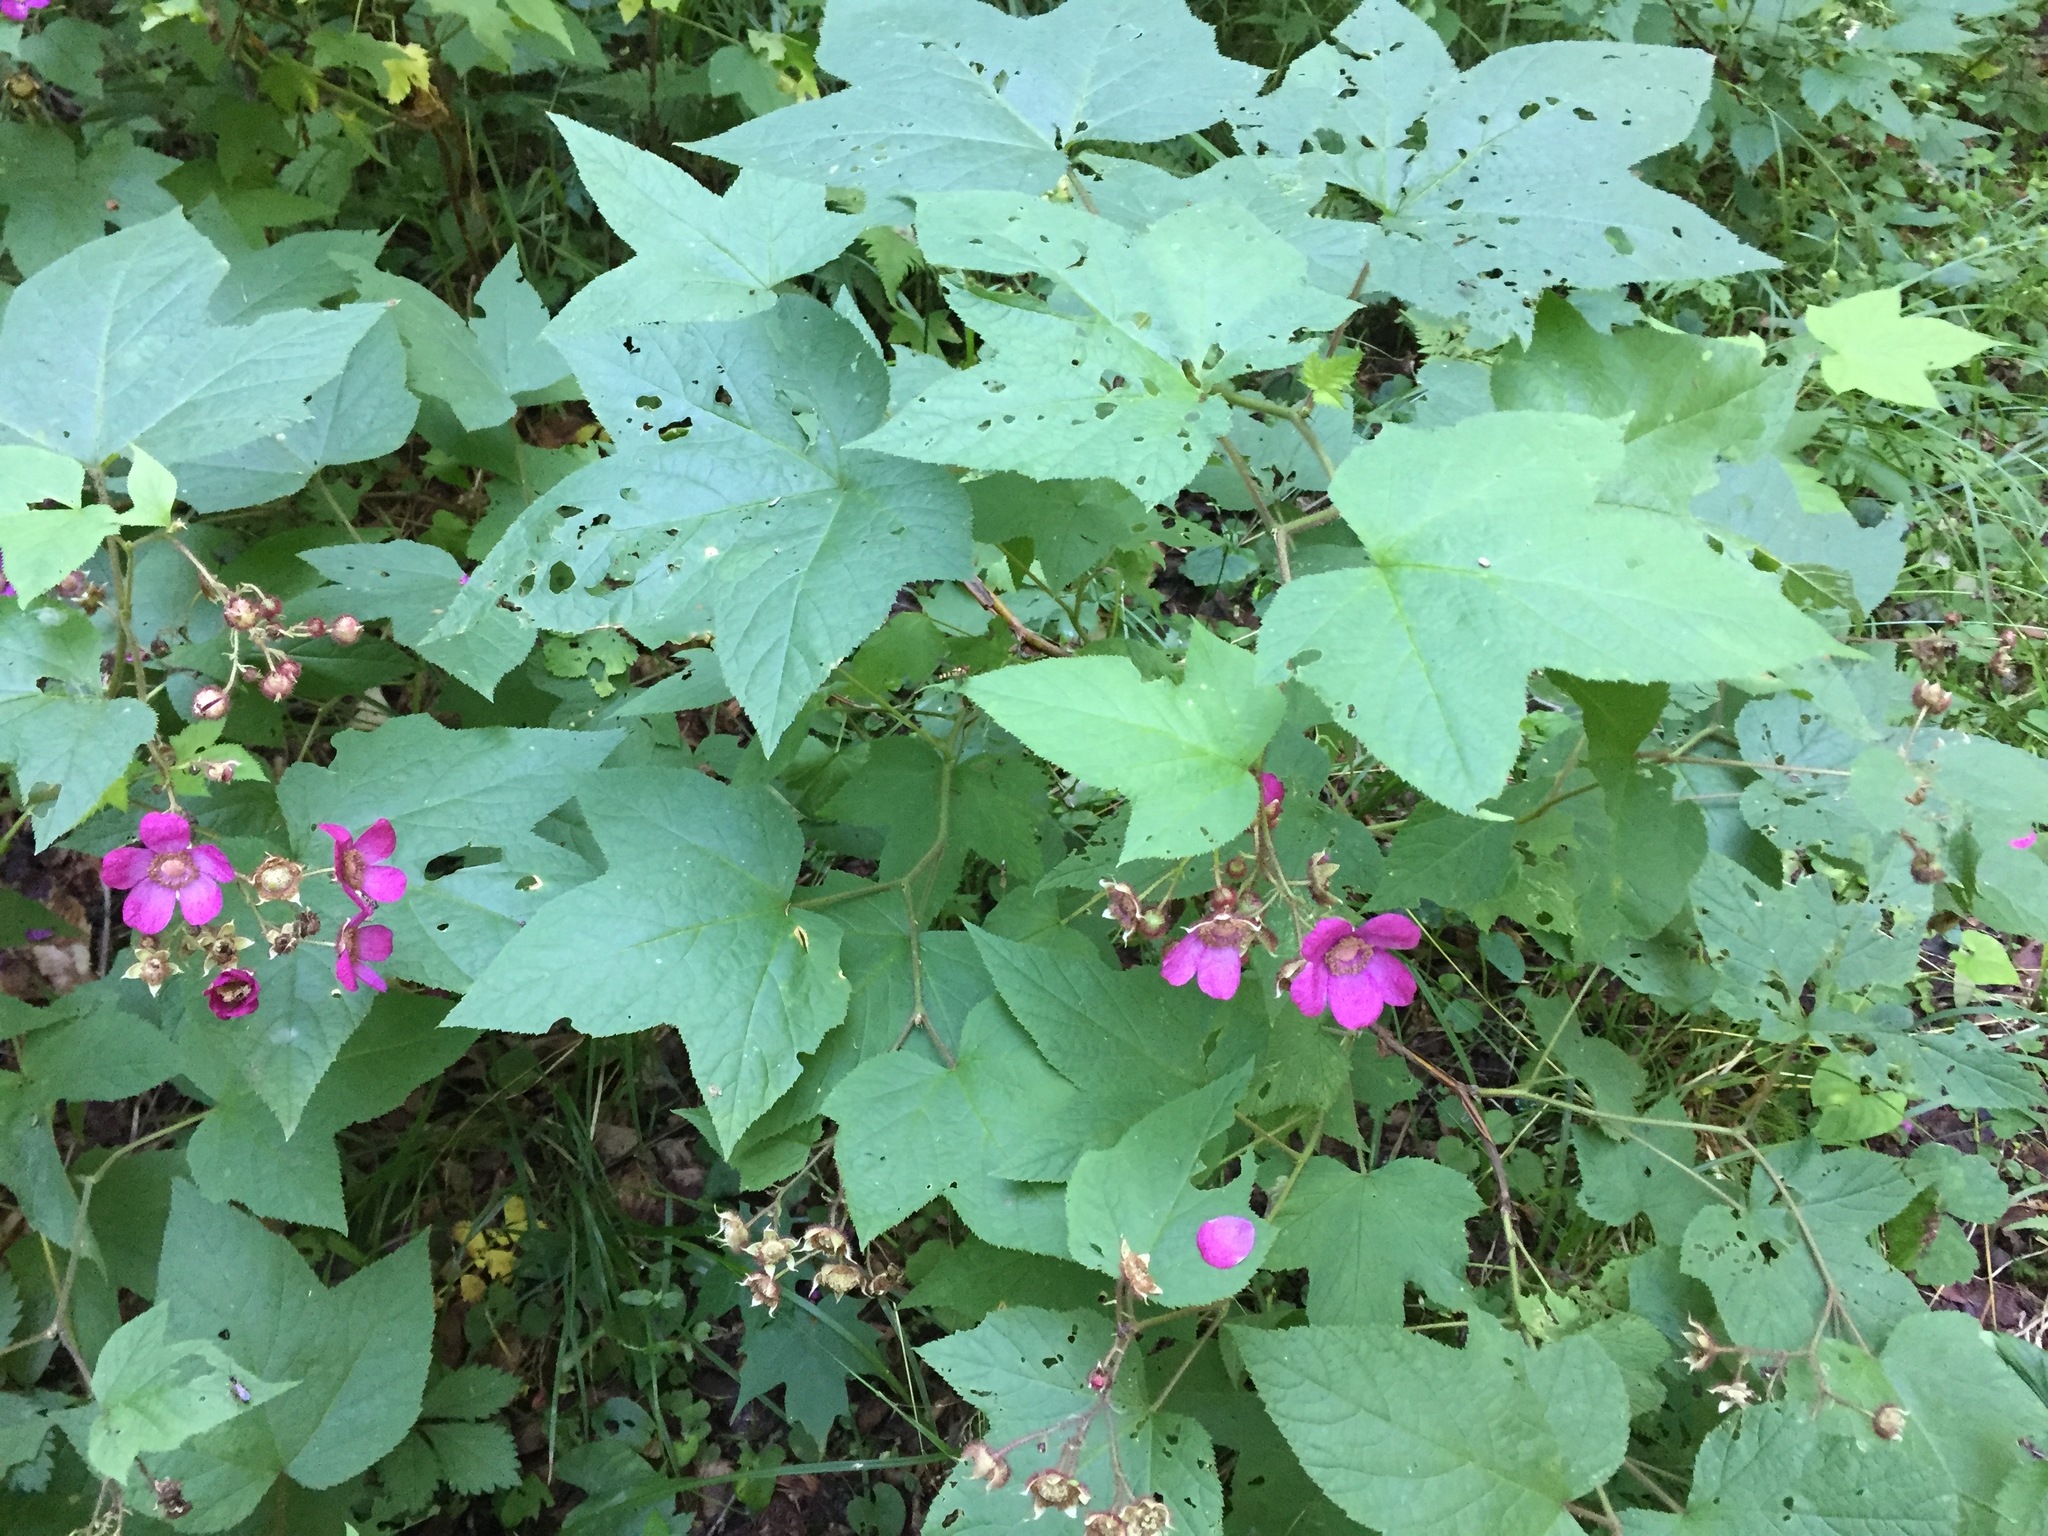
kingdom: Plantae
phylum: Tracheophyta
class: Magnoliopsida
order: Rosales
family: Rosaceae
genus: Rubus
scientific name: Rubus odoratus
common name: Purple-flowered raspberry
